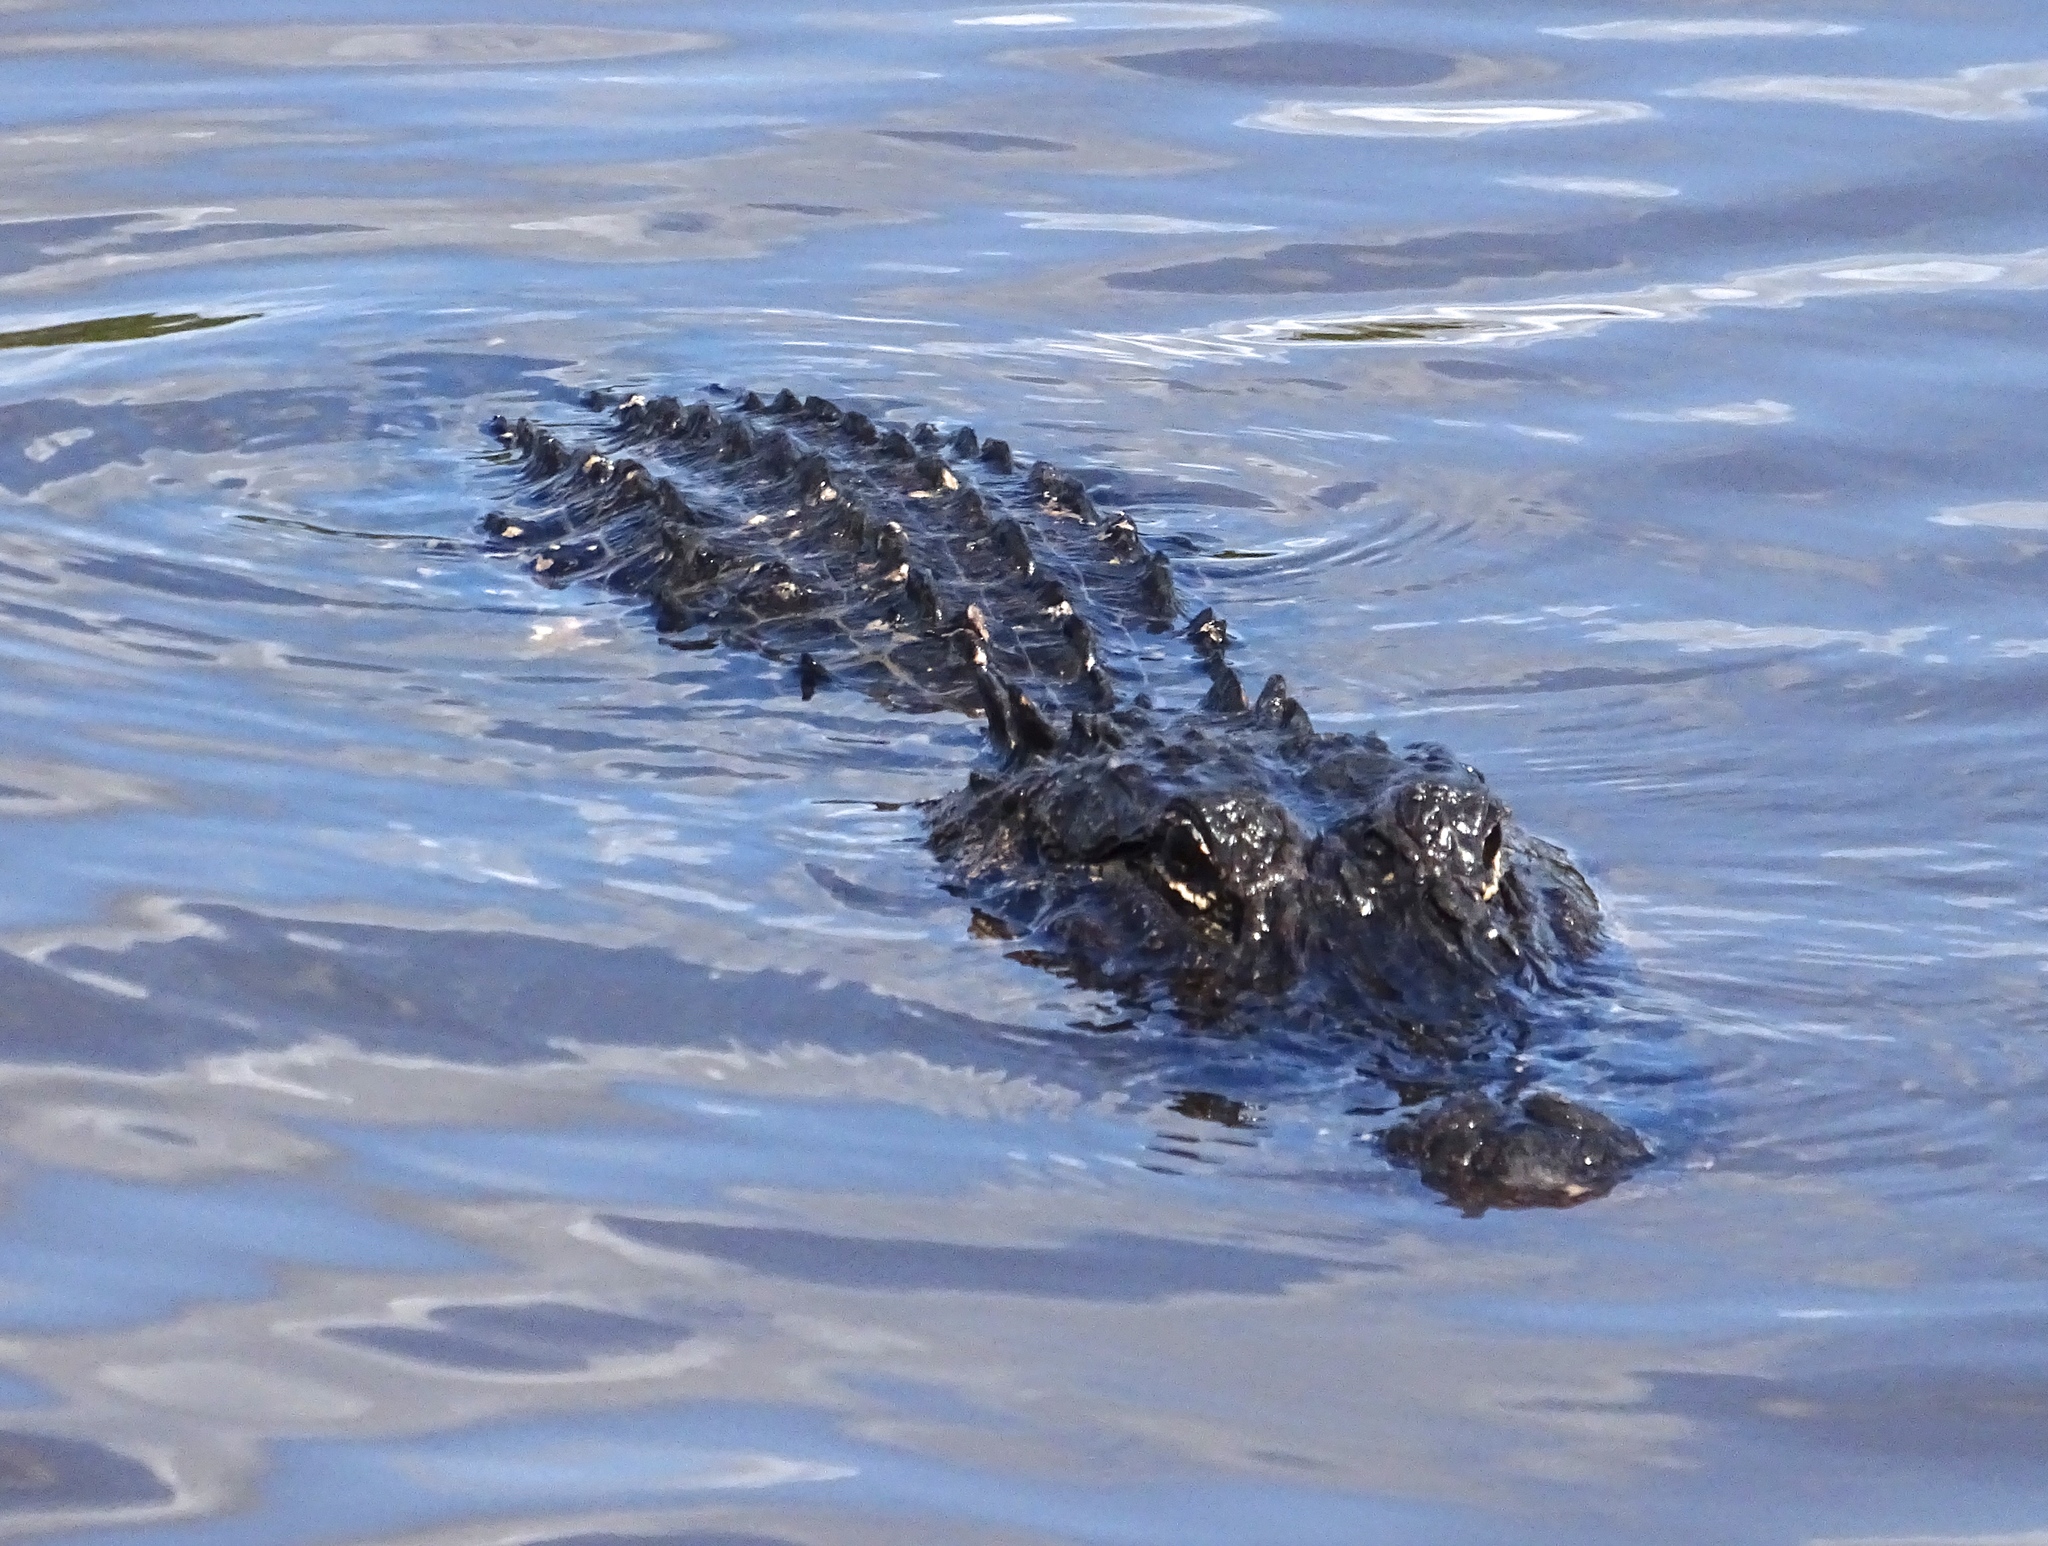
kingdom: Animalia
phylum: Chordata
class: Crocodylia
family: Alligatoridae
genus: Alligator
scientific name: Alligator mississippiensis
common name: American alligator
